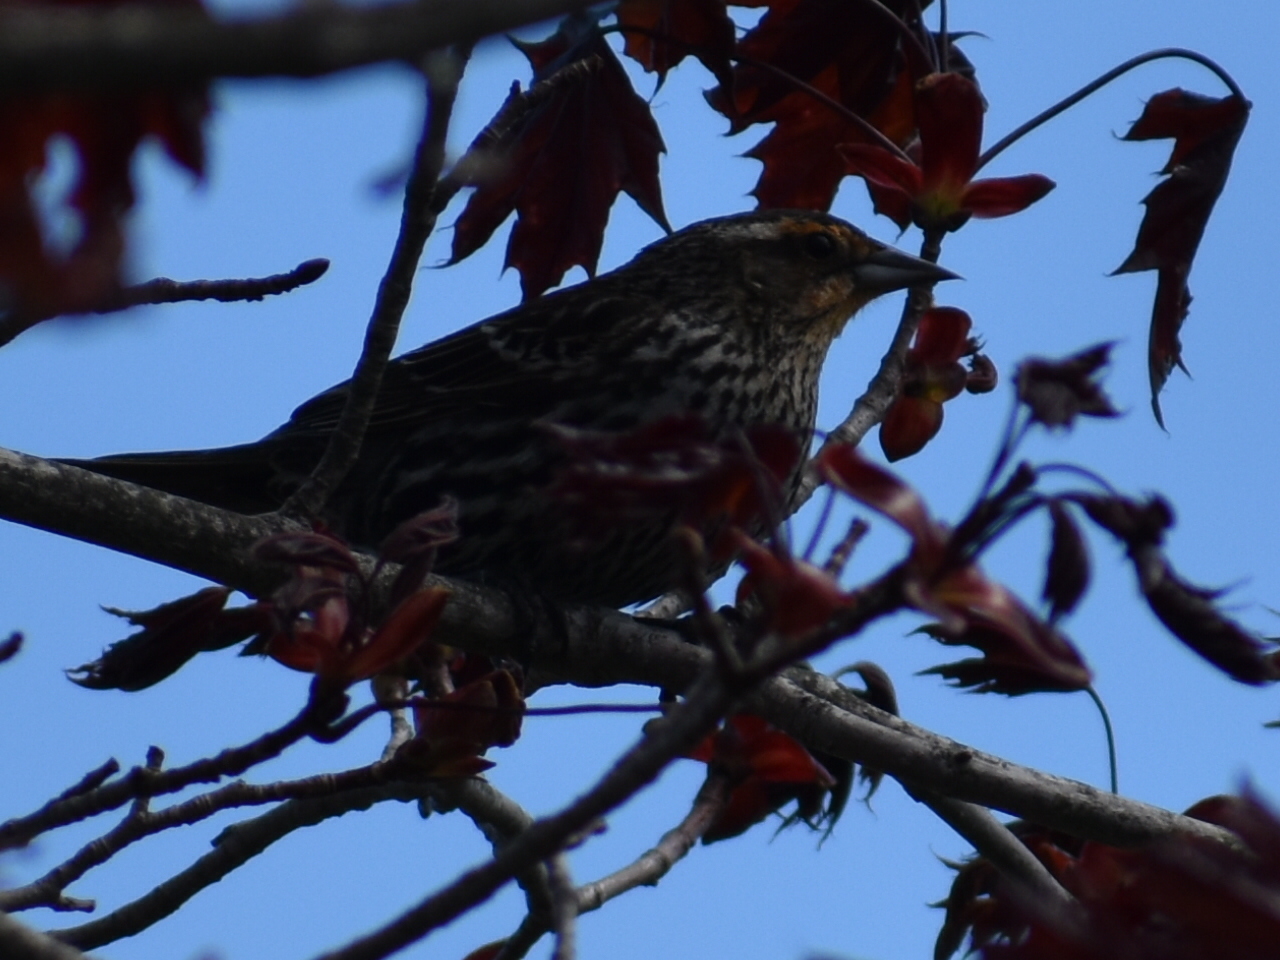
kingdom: Animalia
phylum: Chordata
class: Aves
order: Passeriformes
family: Icteridae
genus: Agelaius
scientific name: Agelaius phoeniceus
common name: Red-winged blackbird
